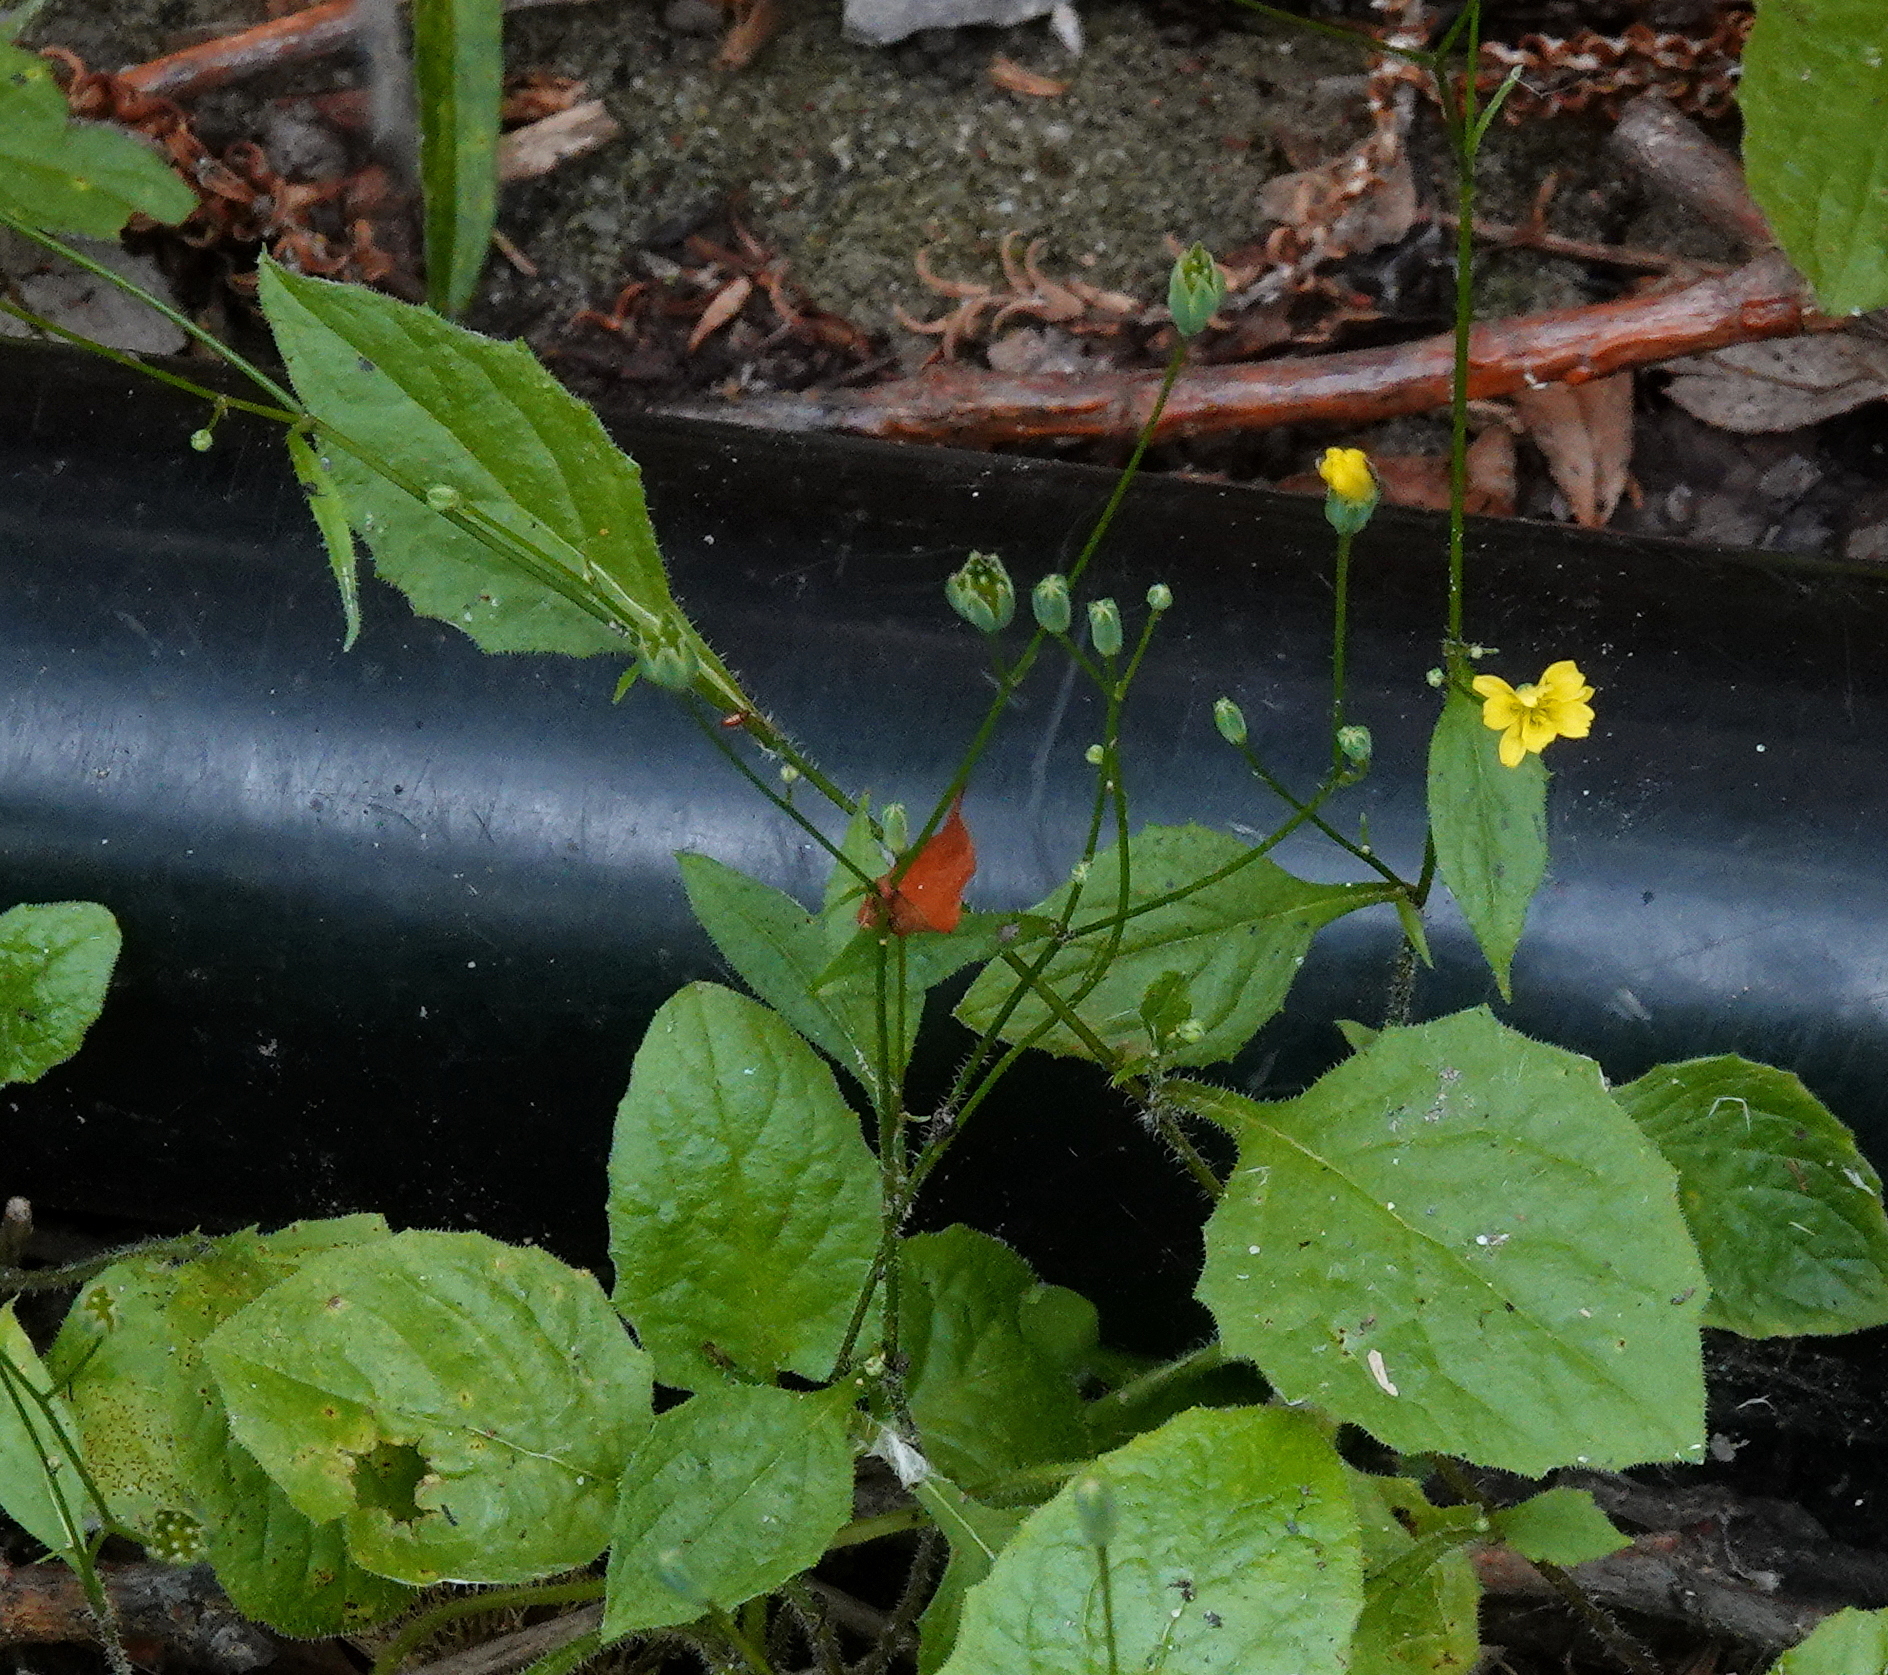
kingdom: Plantae
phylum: Tracheophyta
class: Magnoliopsida
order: Asterales
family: Asteraceae
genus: Lapsana
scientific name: Lapsana communis
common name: Nipplewort
